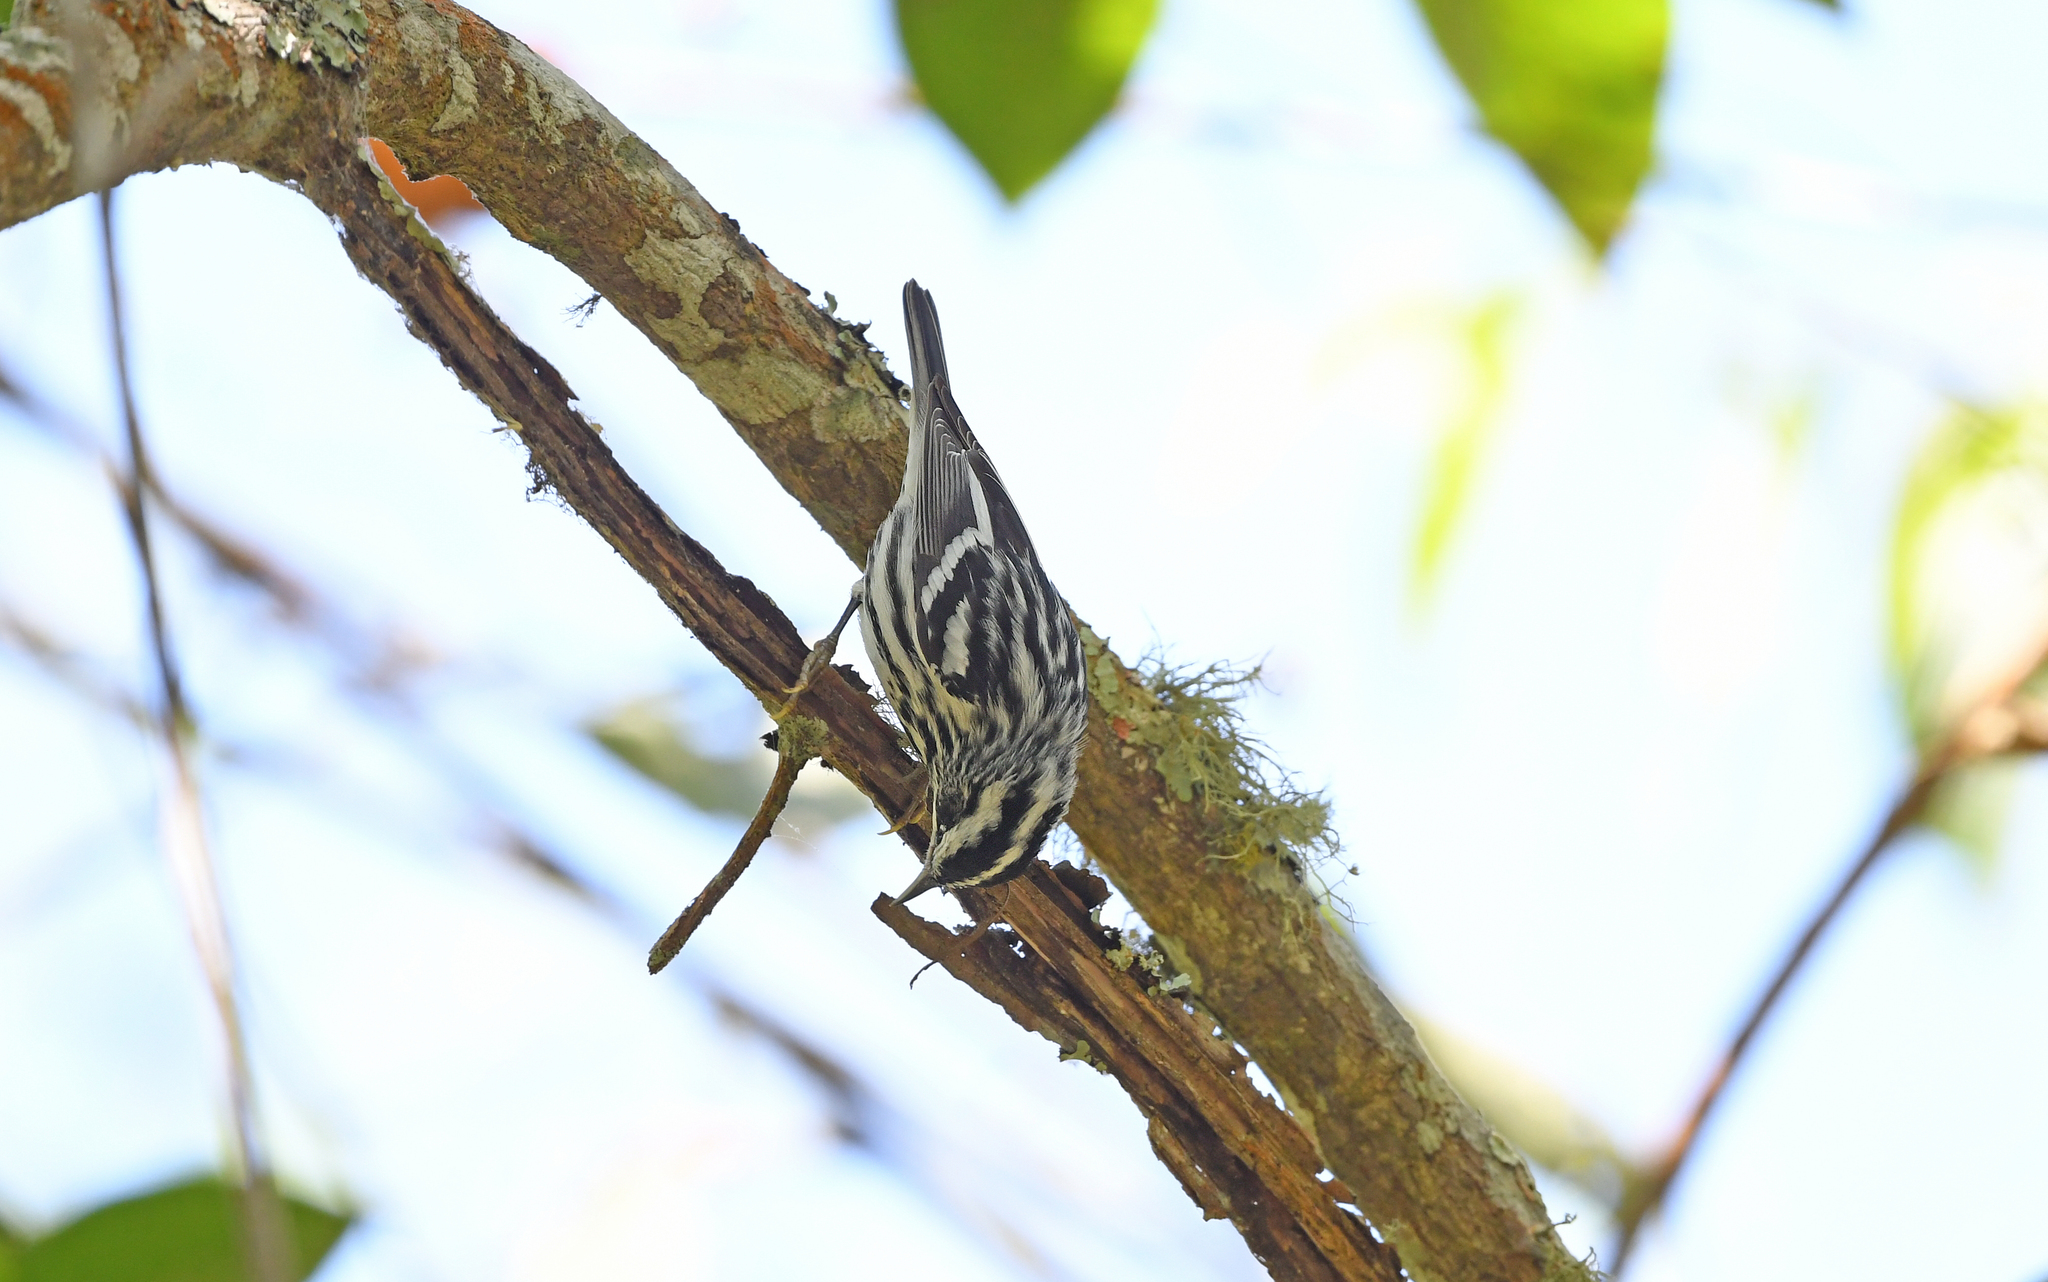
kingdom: Animalia
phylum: Chordata
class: Aves
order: Passeriformes
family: Parulidae
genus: Mniotilta
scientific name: Mniotilta varia
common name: Black-and-white warbler
